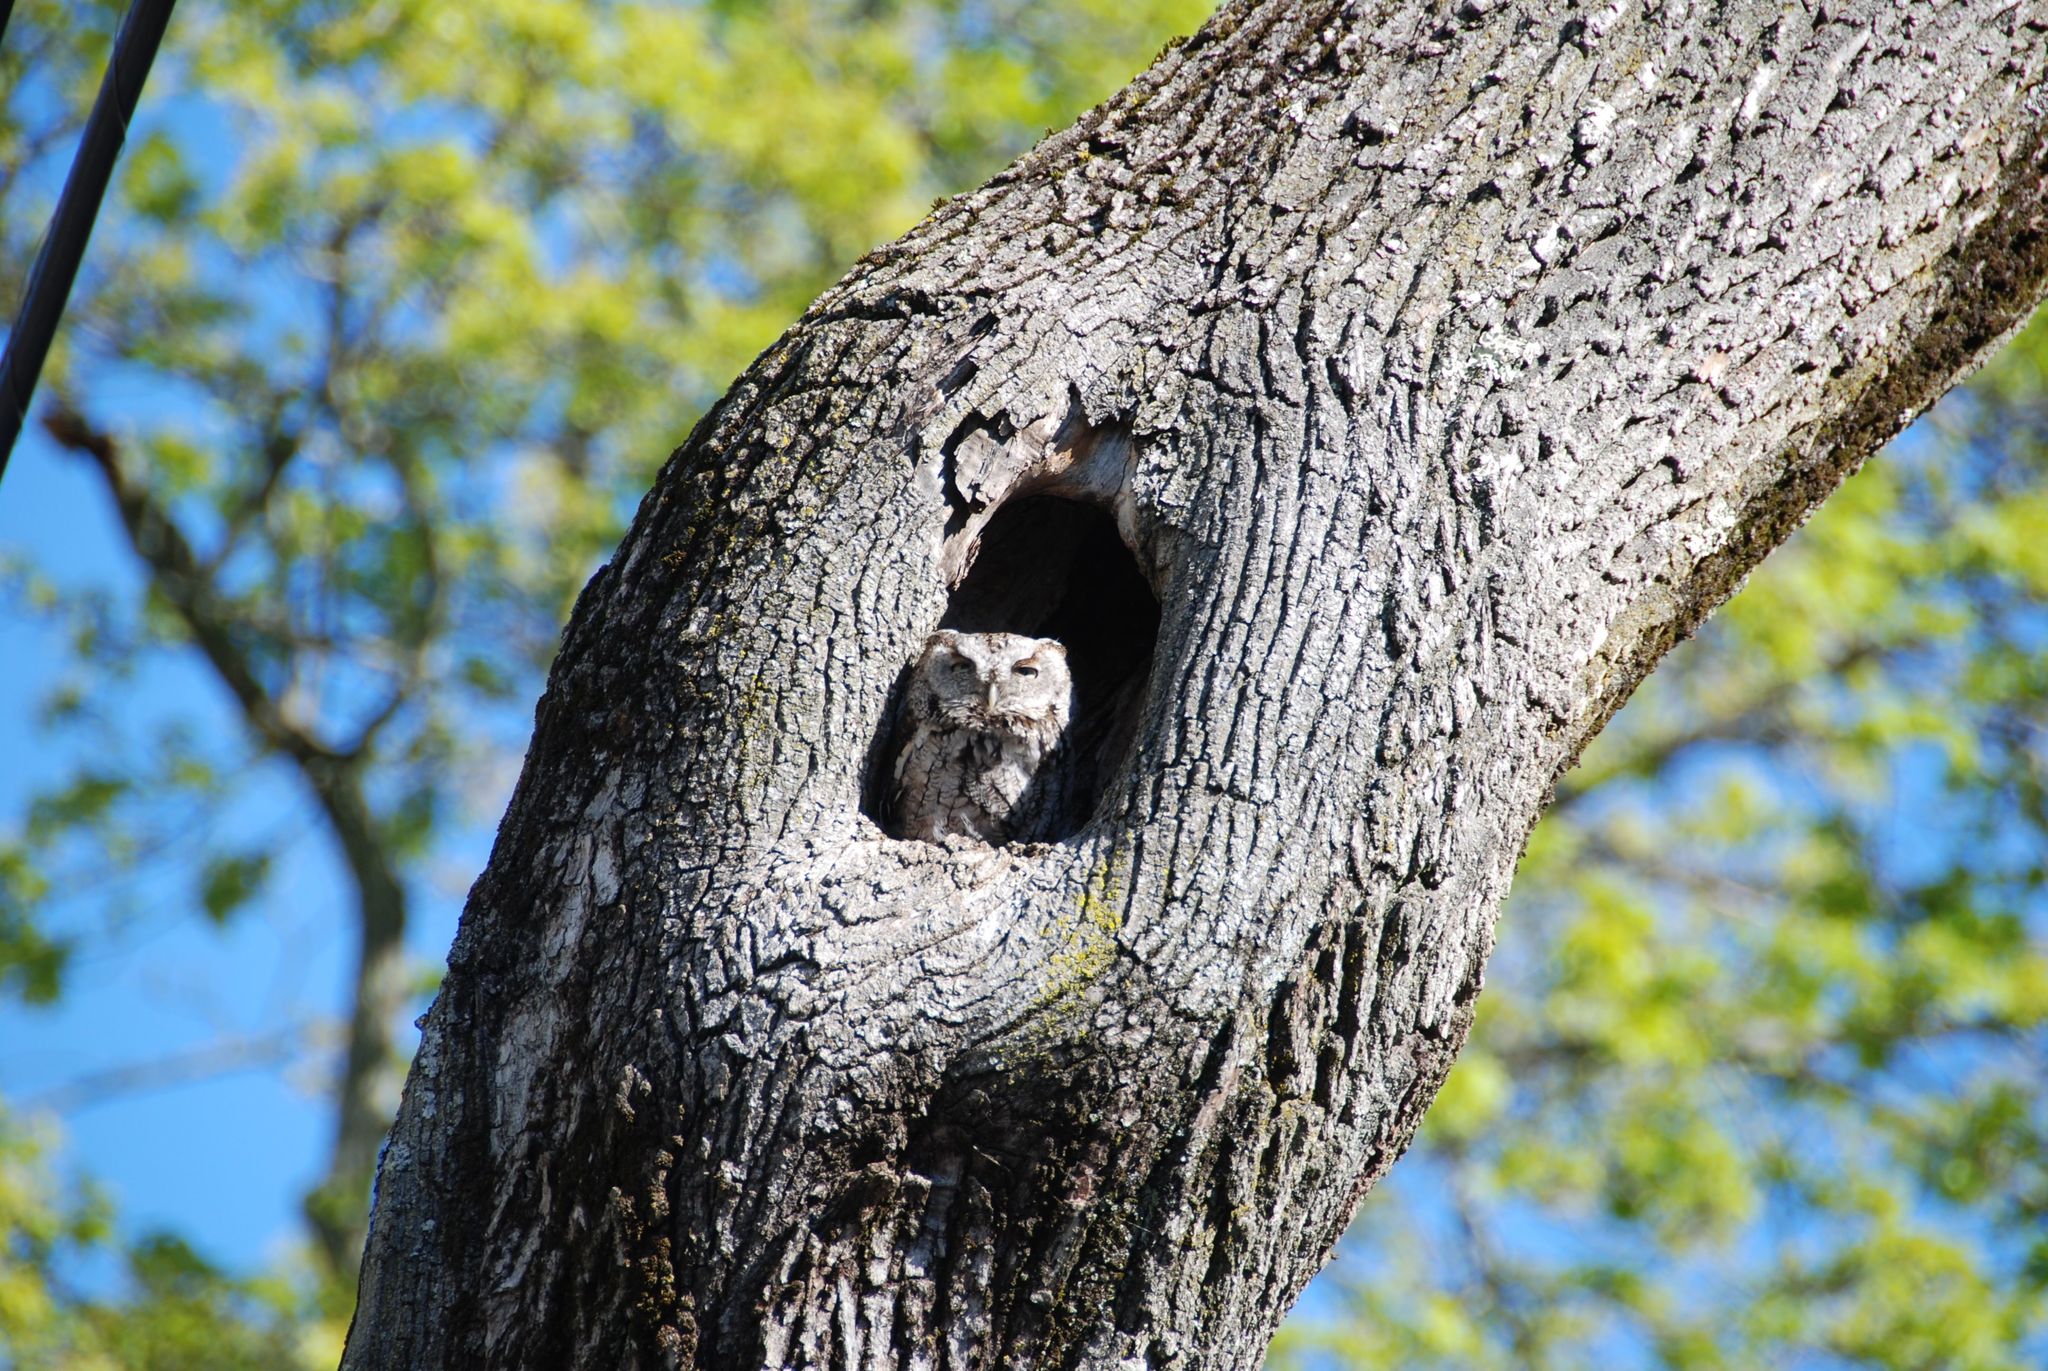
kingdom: Animalia
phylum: Chordata
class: Aves
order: Strigiformes
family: Strigidae
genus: Megascops
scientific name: Megascops asio
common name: Eastern screech-owl
